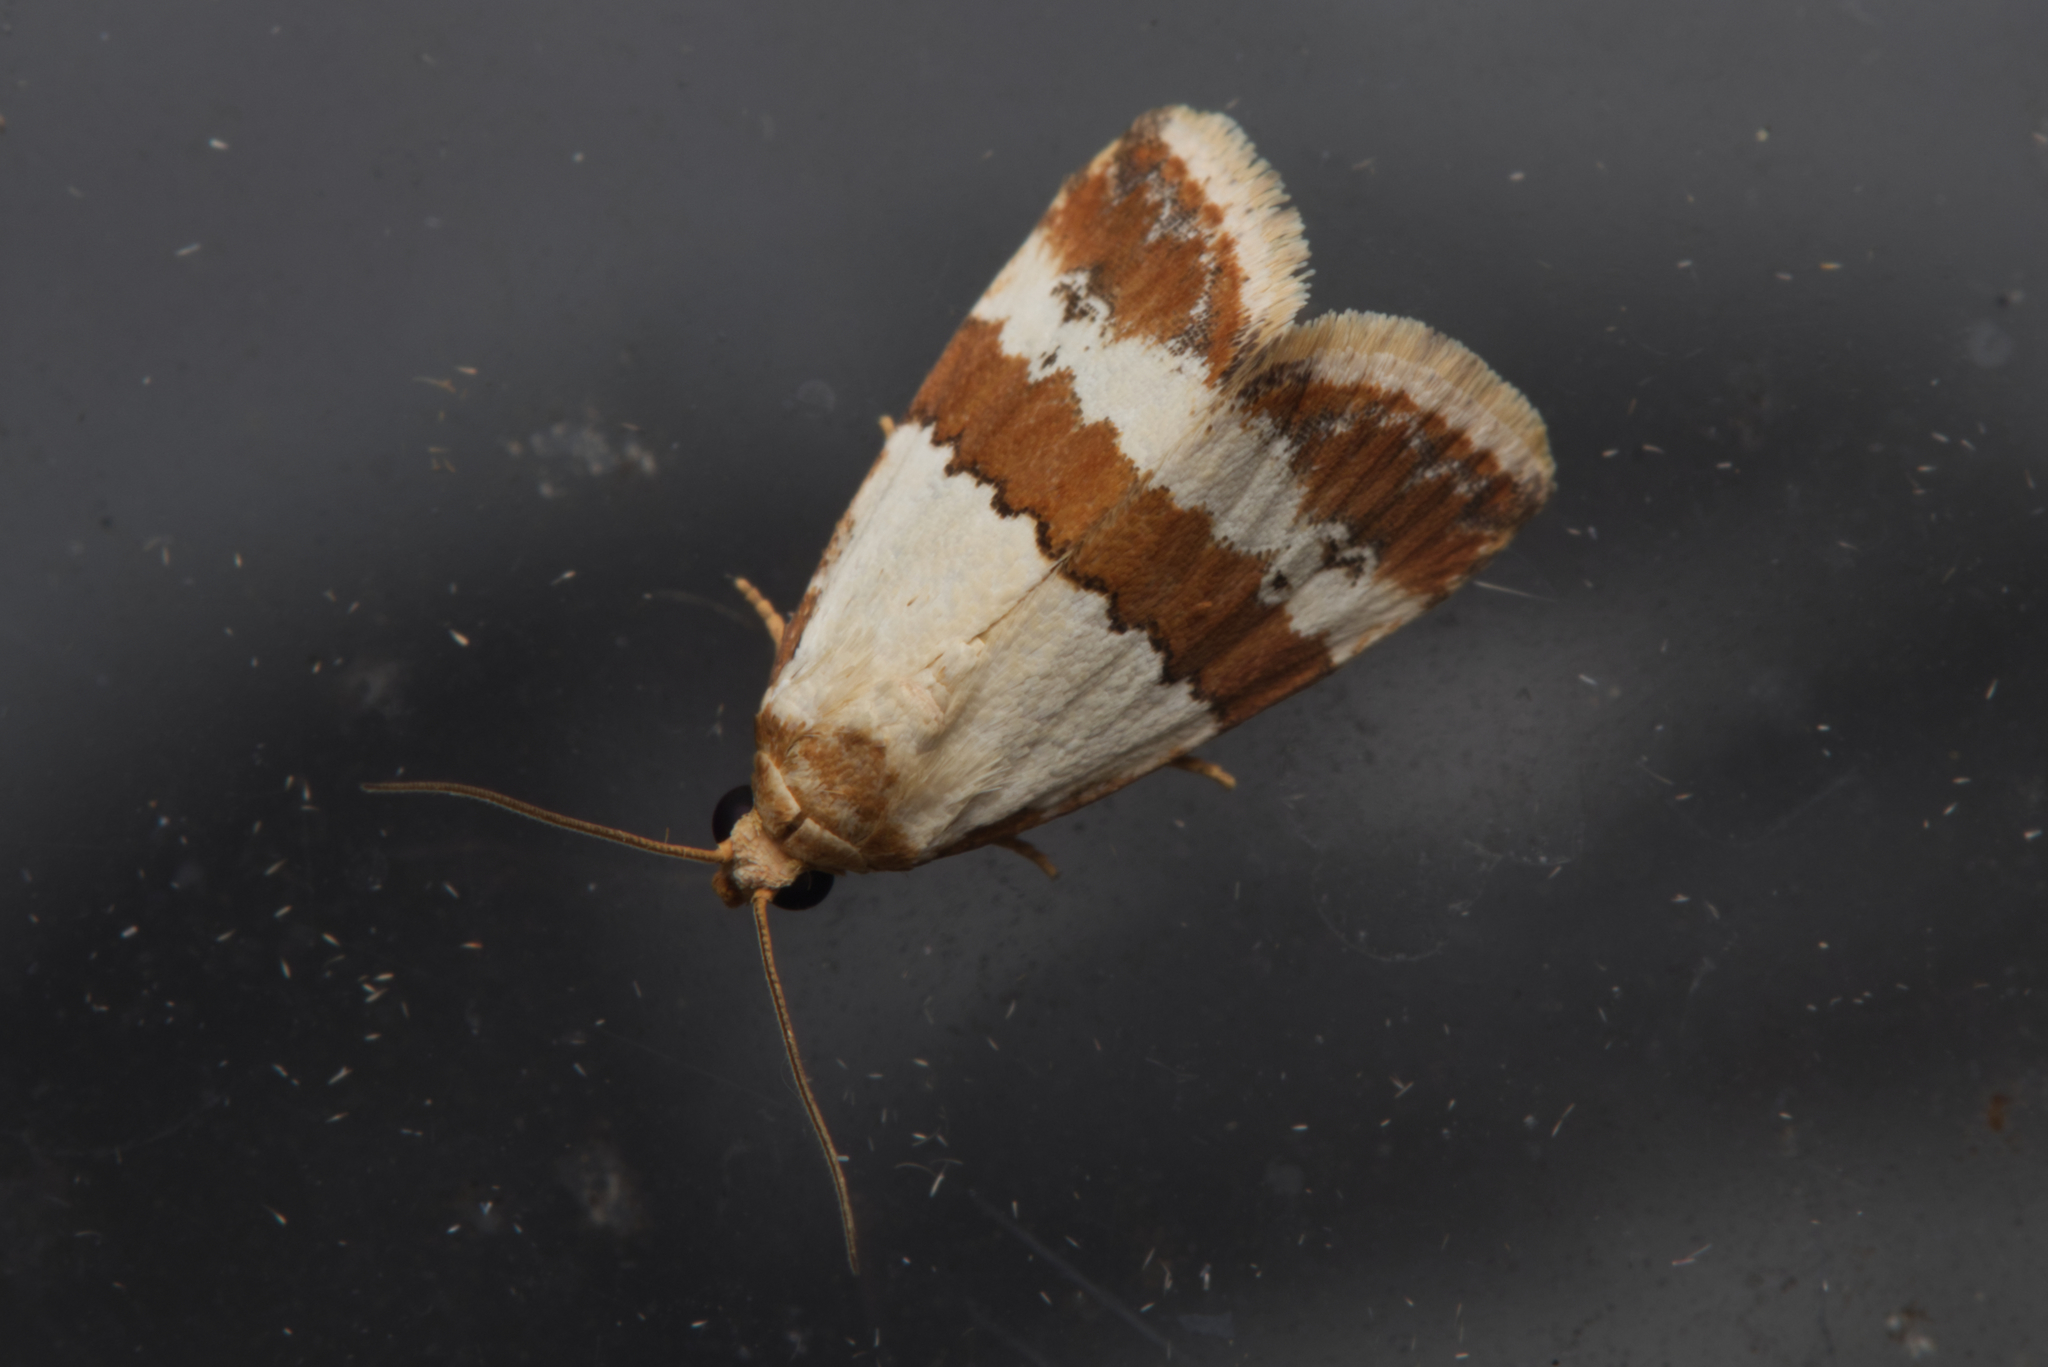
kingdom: Animalia
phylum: Arthropoda
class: Insecta
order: Lepidoptera
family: Noctuidae
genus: Maliattha
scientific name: Maliattha ritsemae
